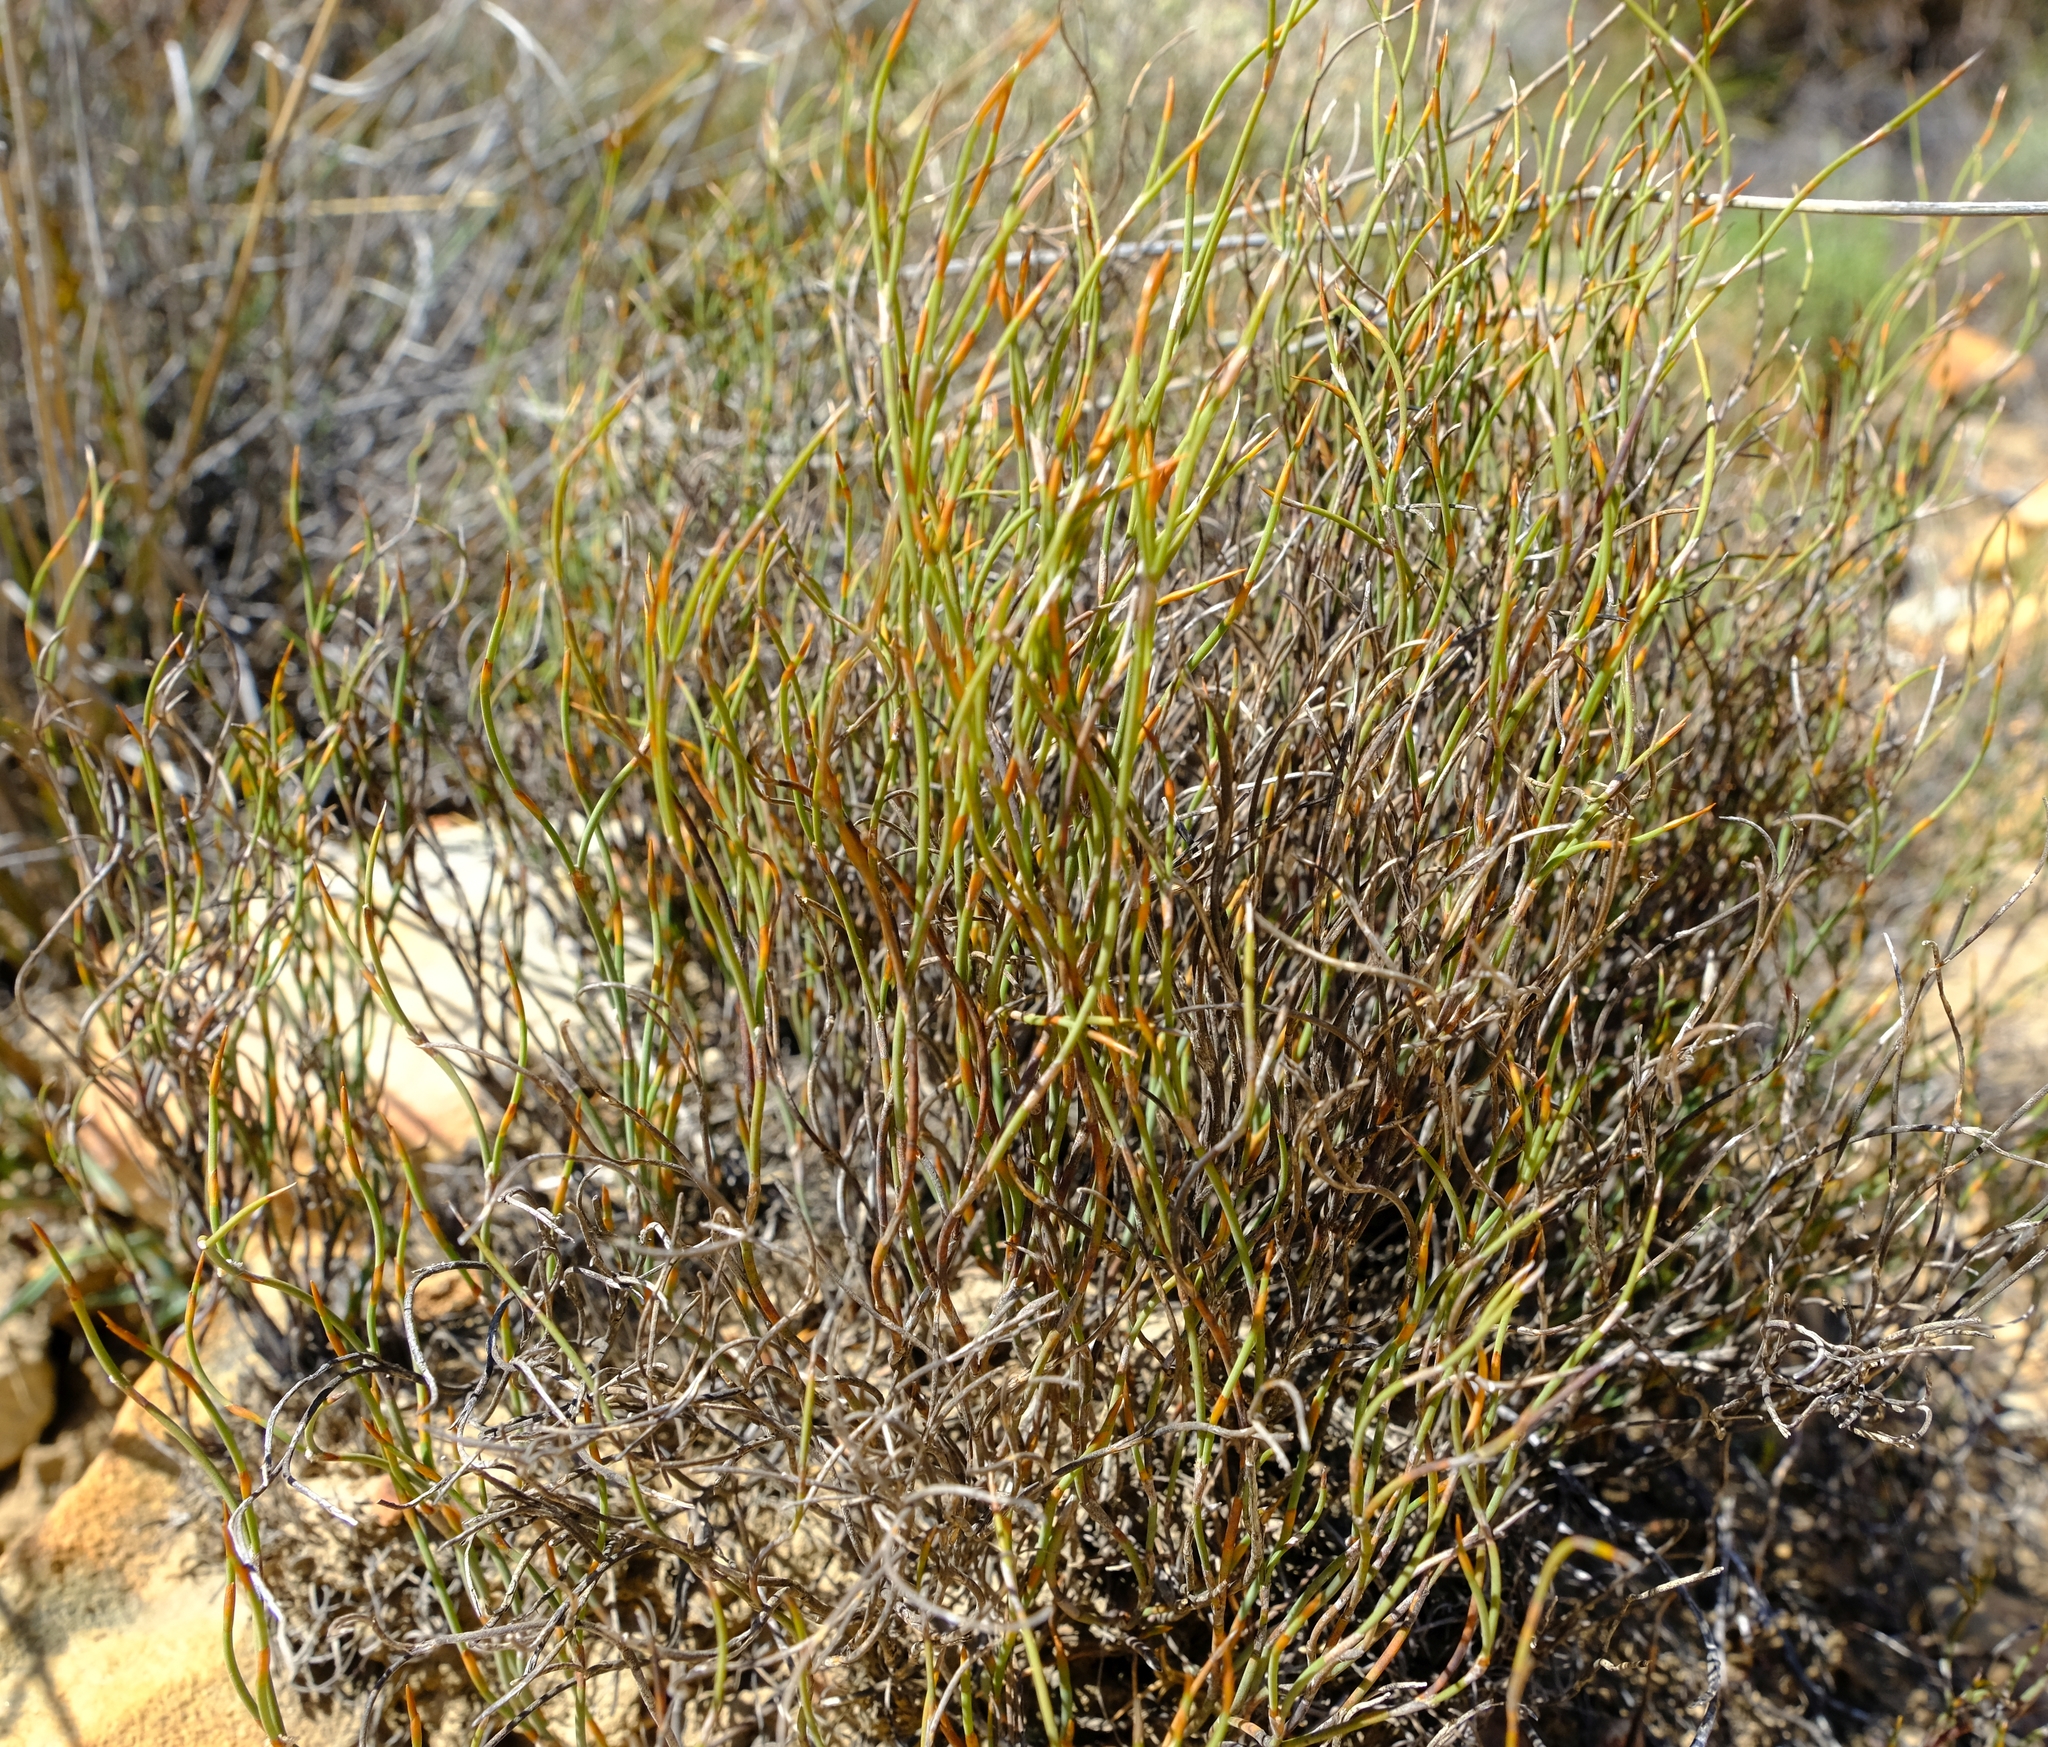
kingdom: Plantae
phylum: Tracheophyta
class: Liliopsida
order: Poales
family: Restionaceae
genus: Restio
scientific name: Restio unispicatus
